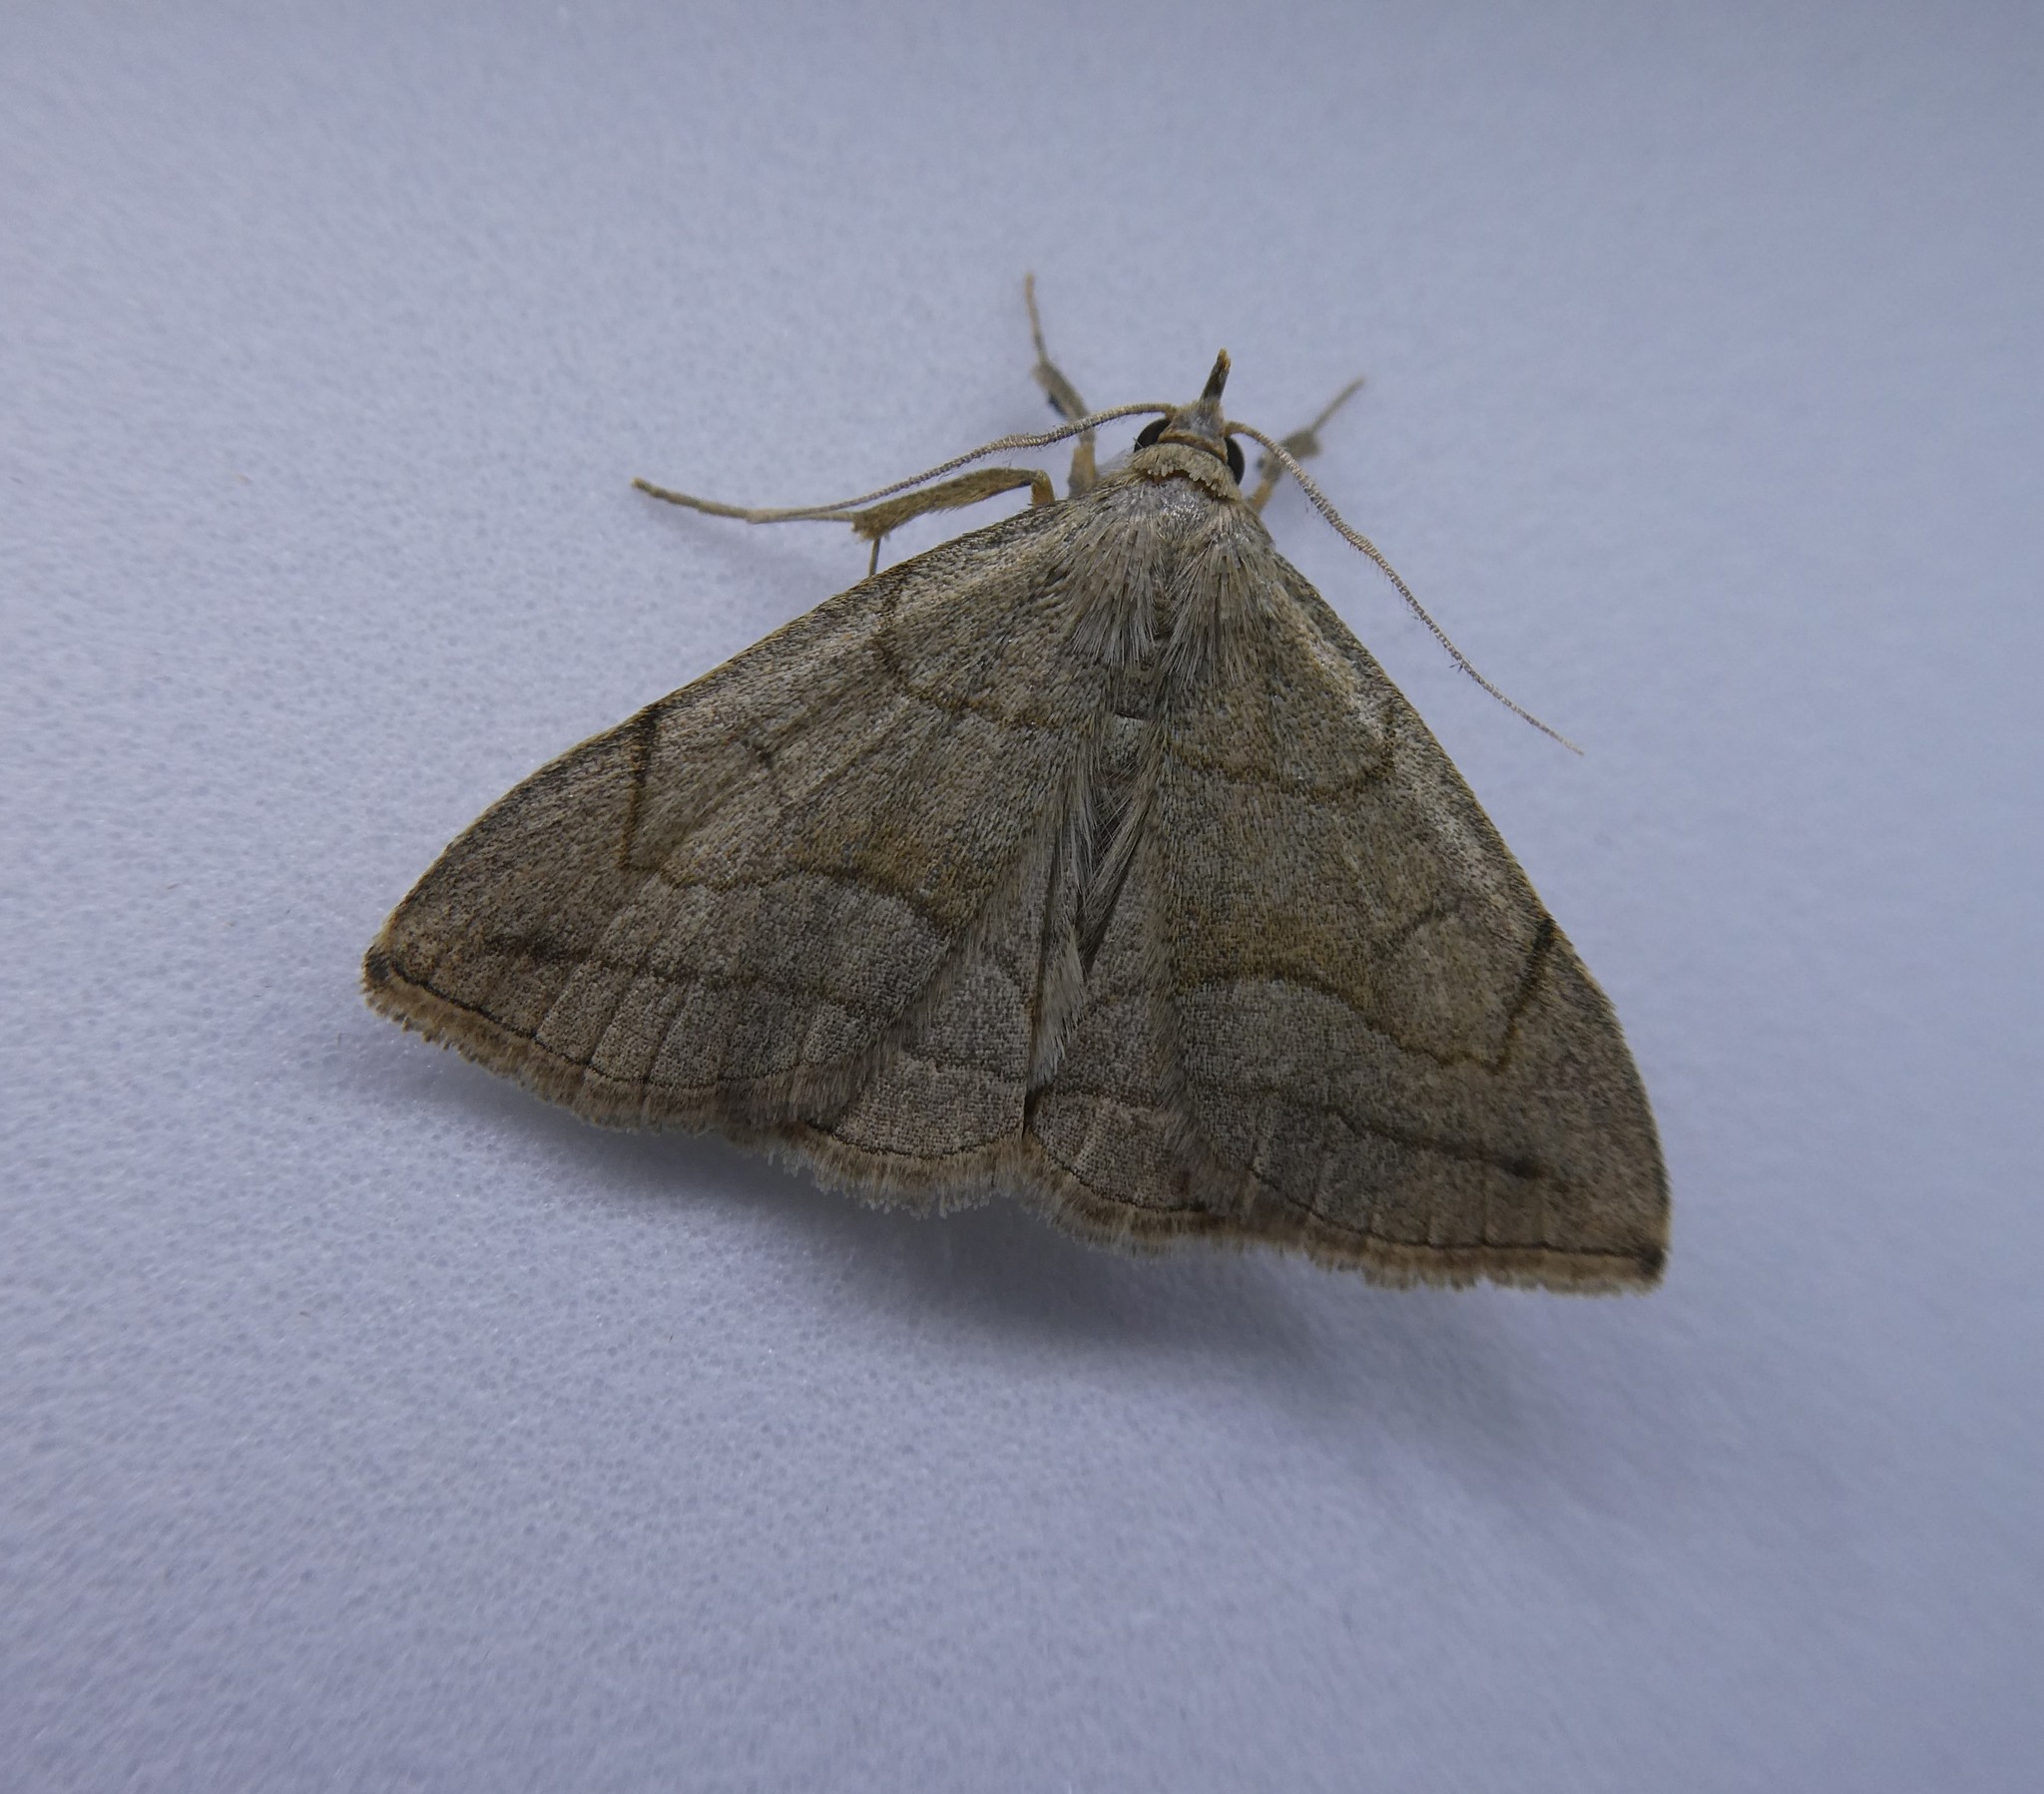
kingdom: Animalia
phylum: Arthropoda
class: Insecta
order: Lepidoptera
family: Erebidae
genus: Zanclognatha
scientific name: Zanclognatha pedipilalis
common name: Grayish fan-foot
